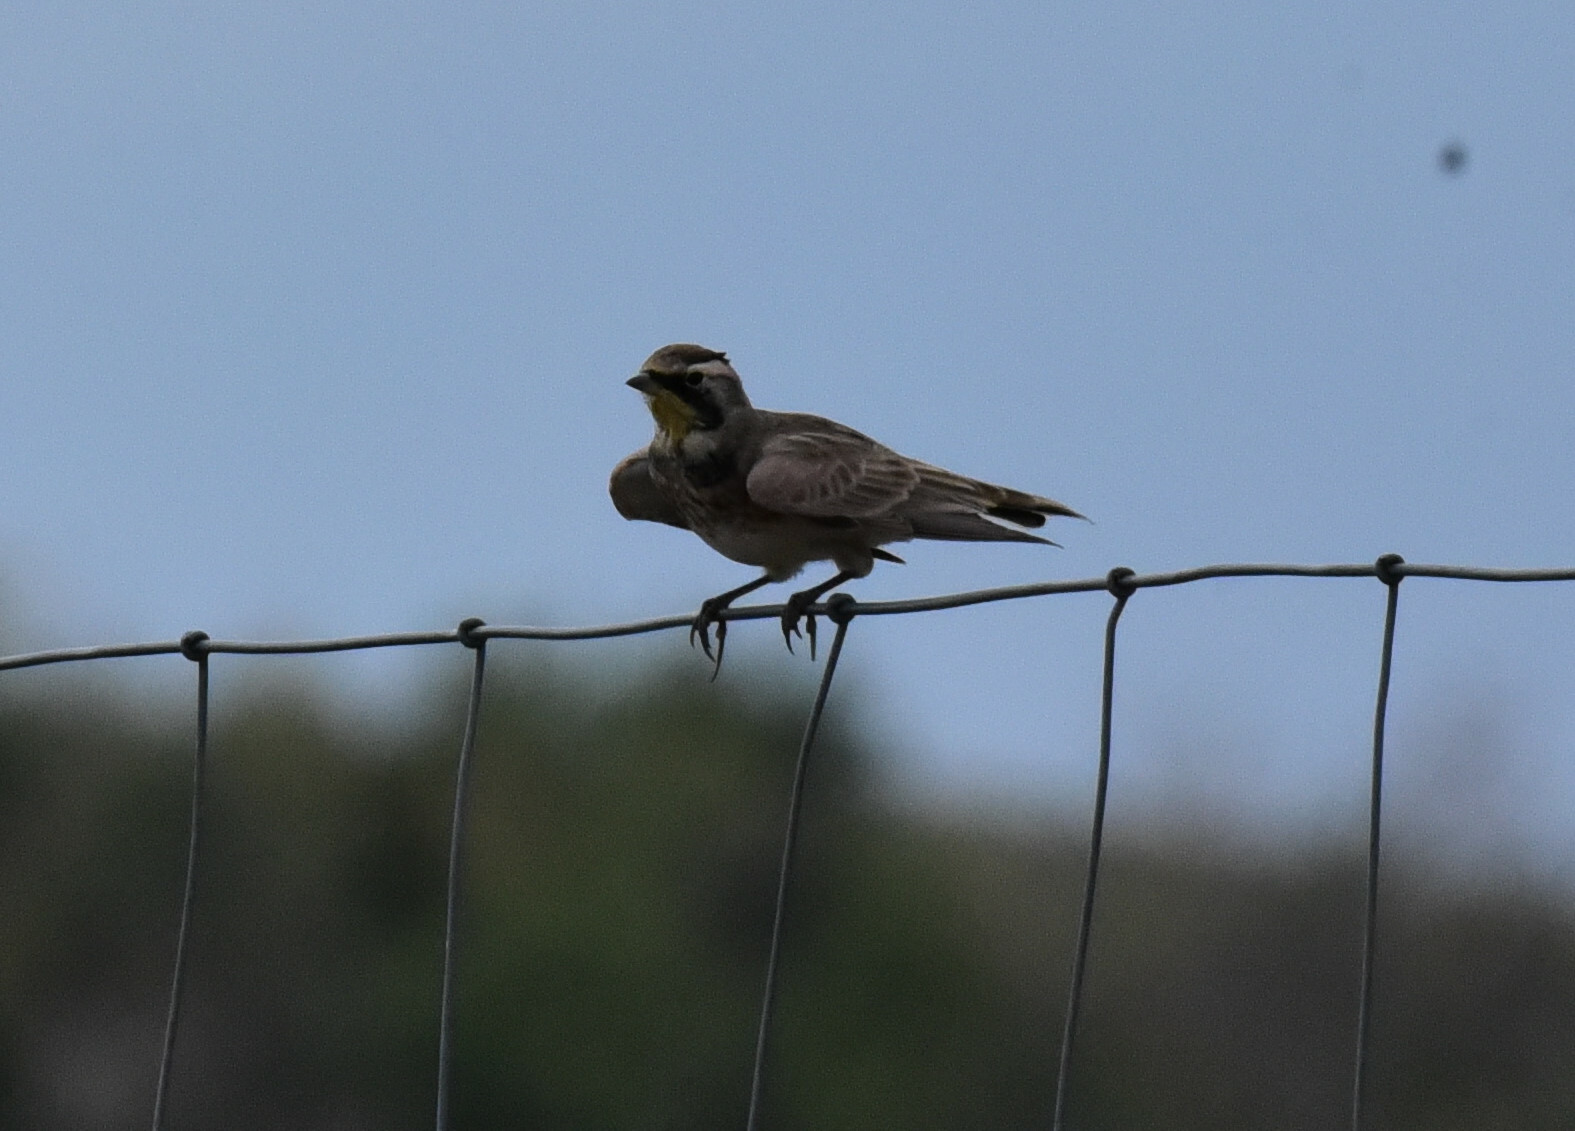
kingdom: Animalia
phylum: Chordata
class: Aves
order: Passeriformes
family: Alaudidae
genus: Eremophila
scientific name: Eremophila alpestris
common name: Horned lark
